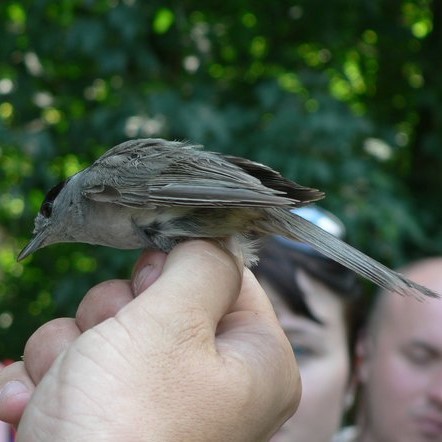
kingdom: Animalia
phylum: Chordata
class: Aves
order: Passeriformes
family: Sylviidae
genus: Sylvia
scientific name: Sylvia atricapilla
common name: Eurasian blackcap
